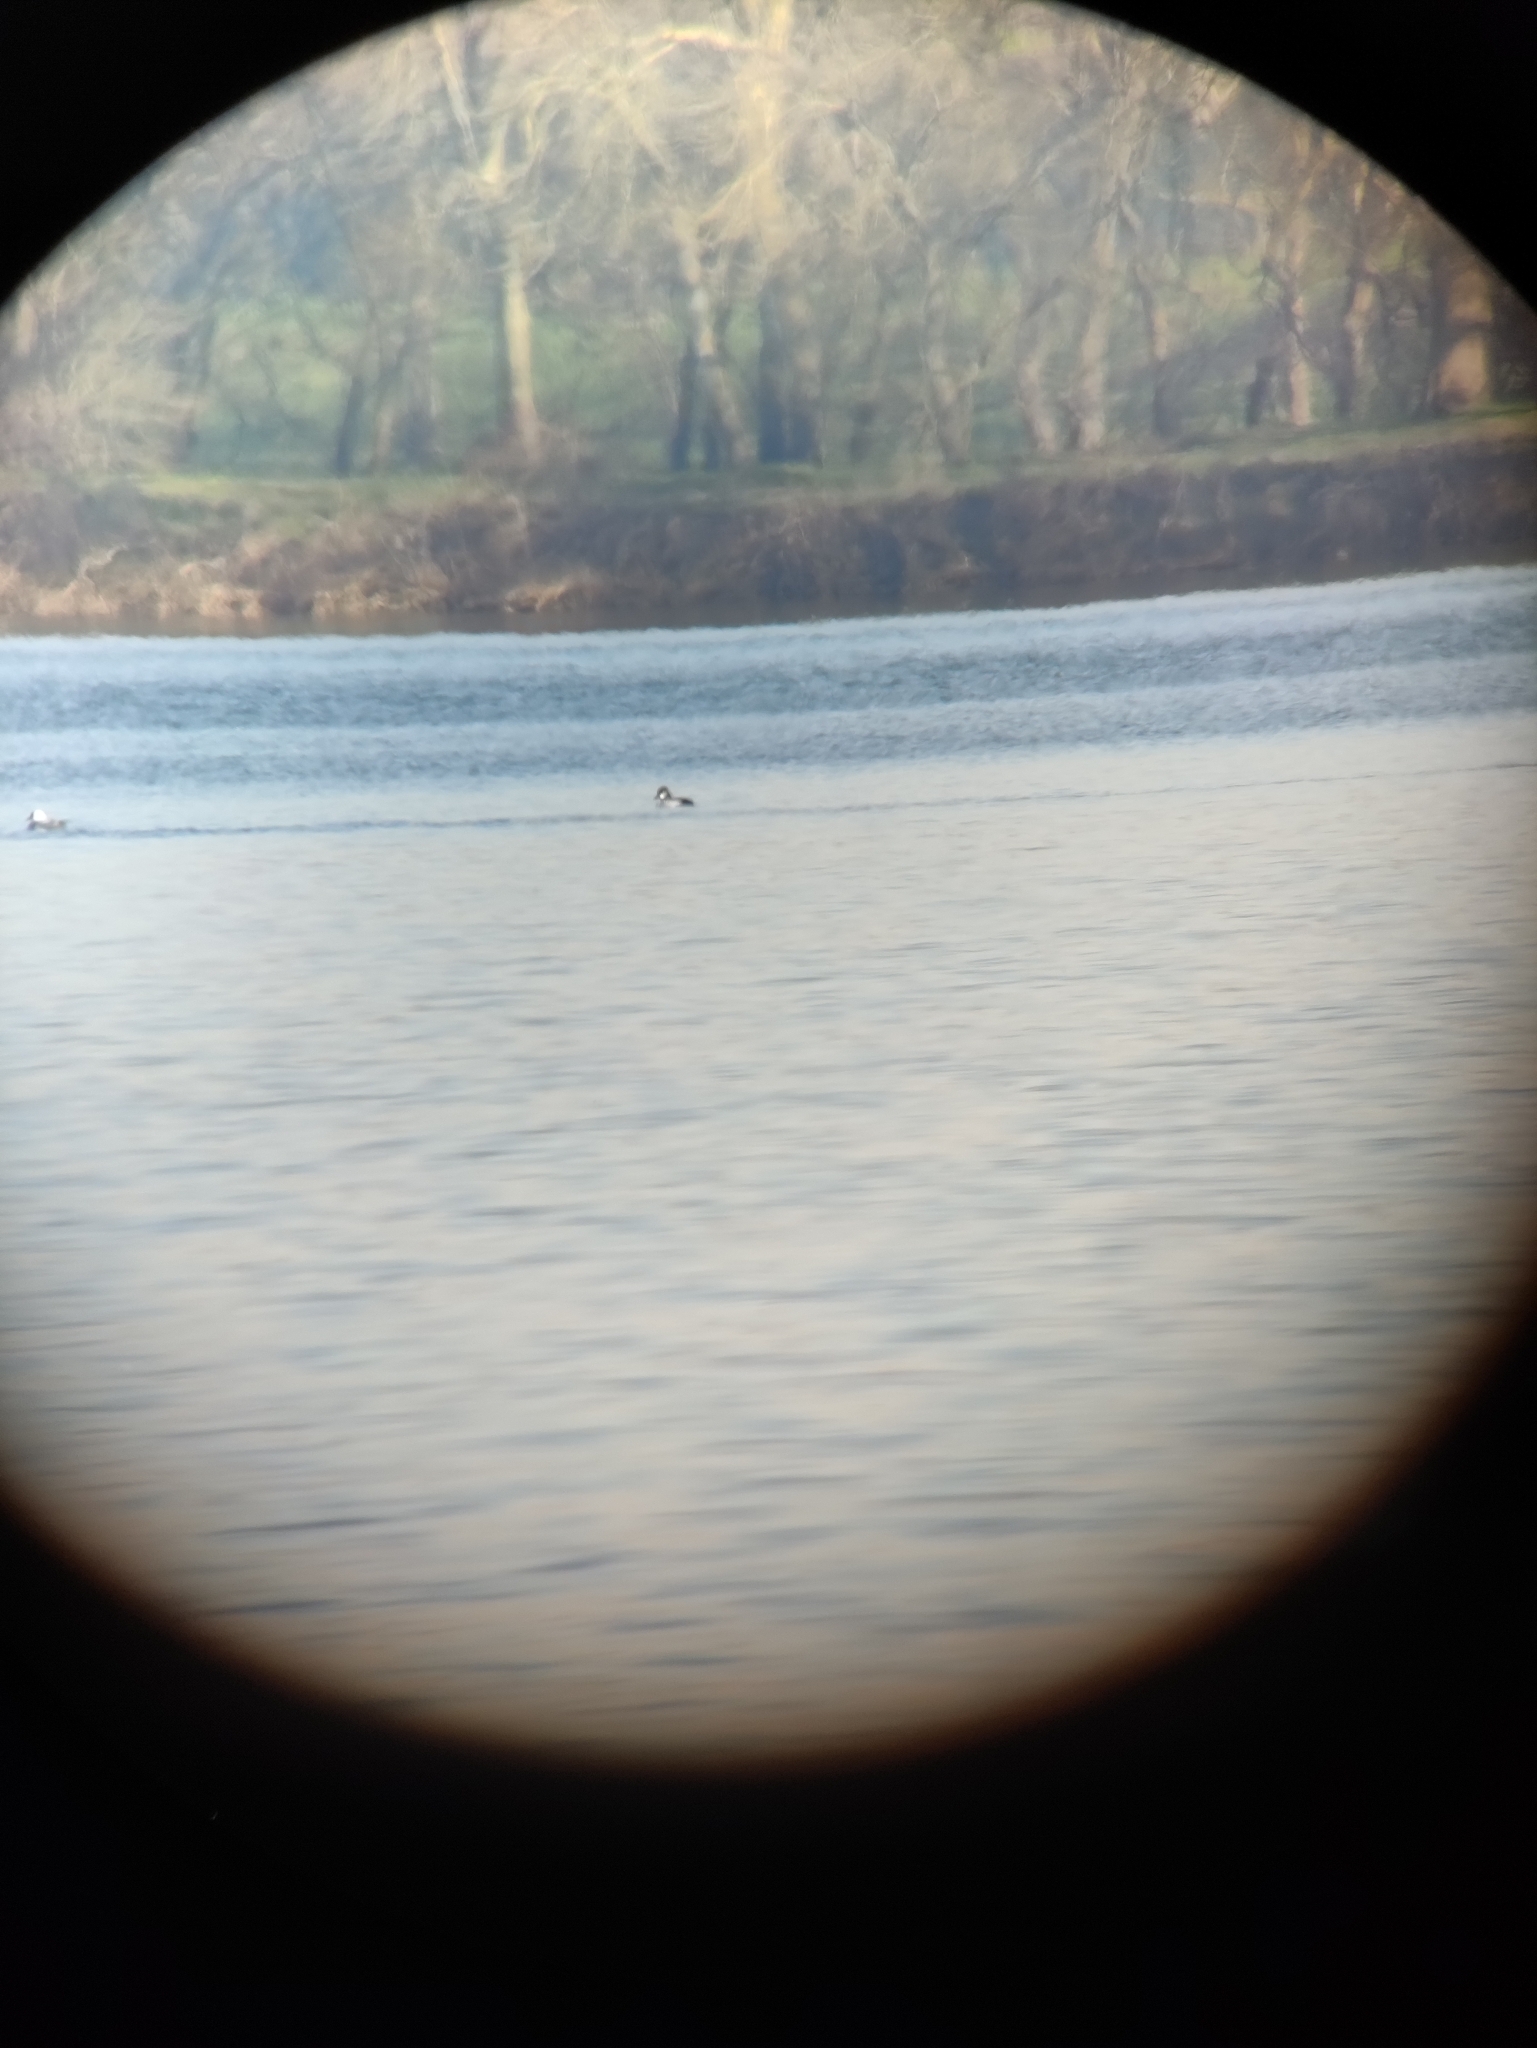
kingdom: Animalia
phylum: Chordata
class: Aves
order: Anseriformes
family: Anatidae
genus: Bucephala
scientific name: Bucephala clangula
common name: Common goldeneye
